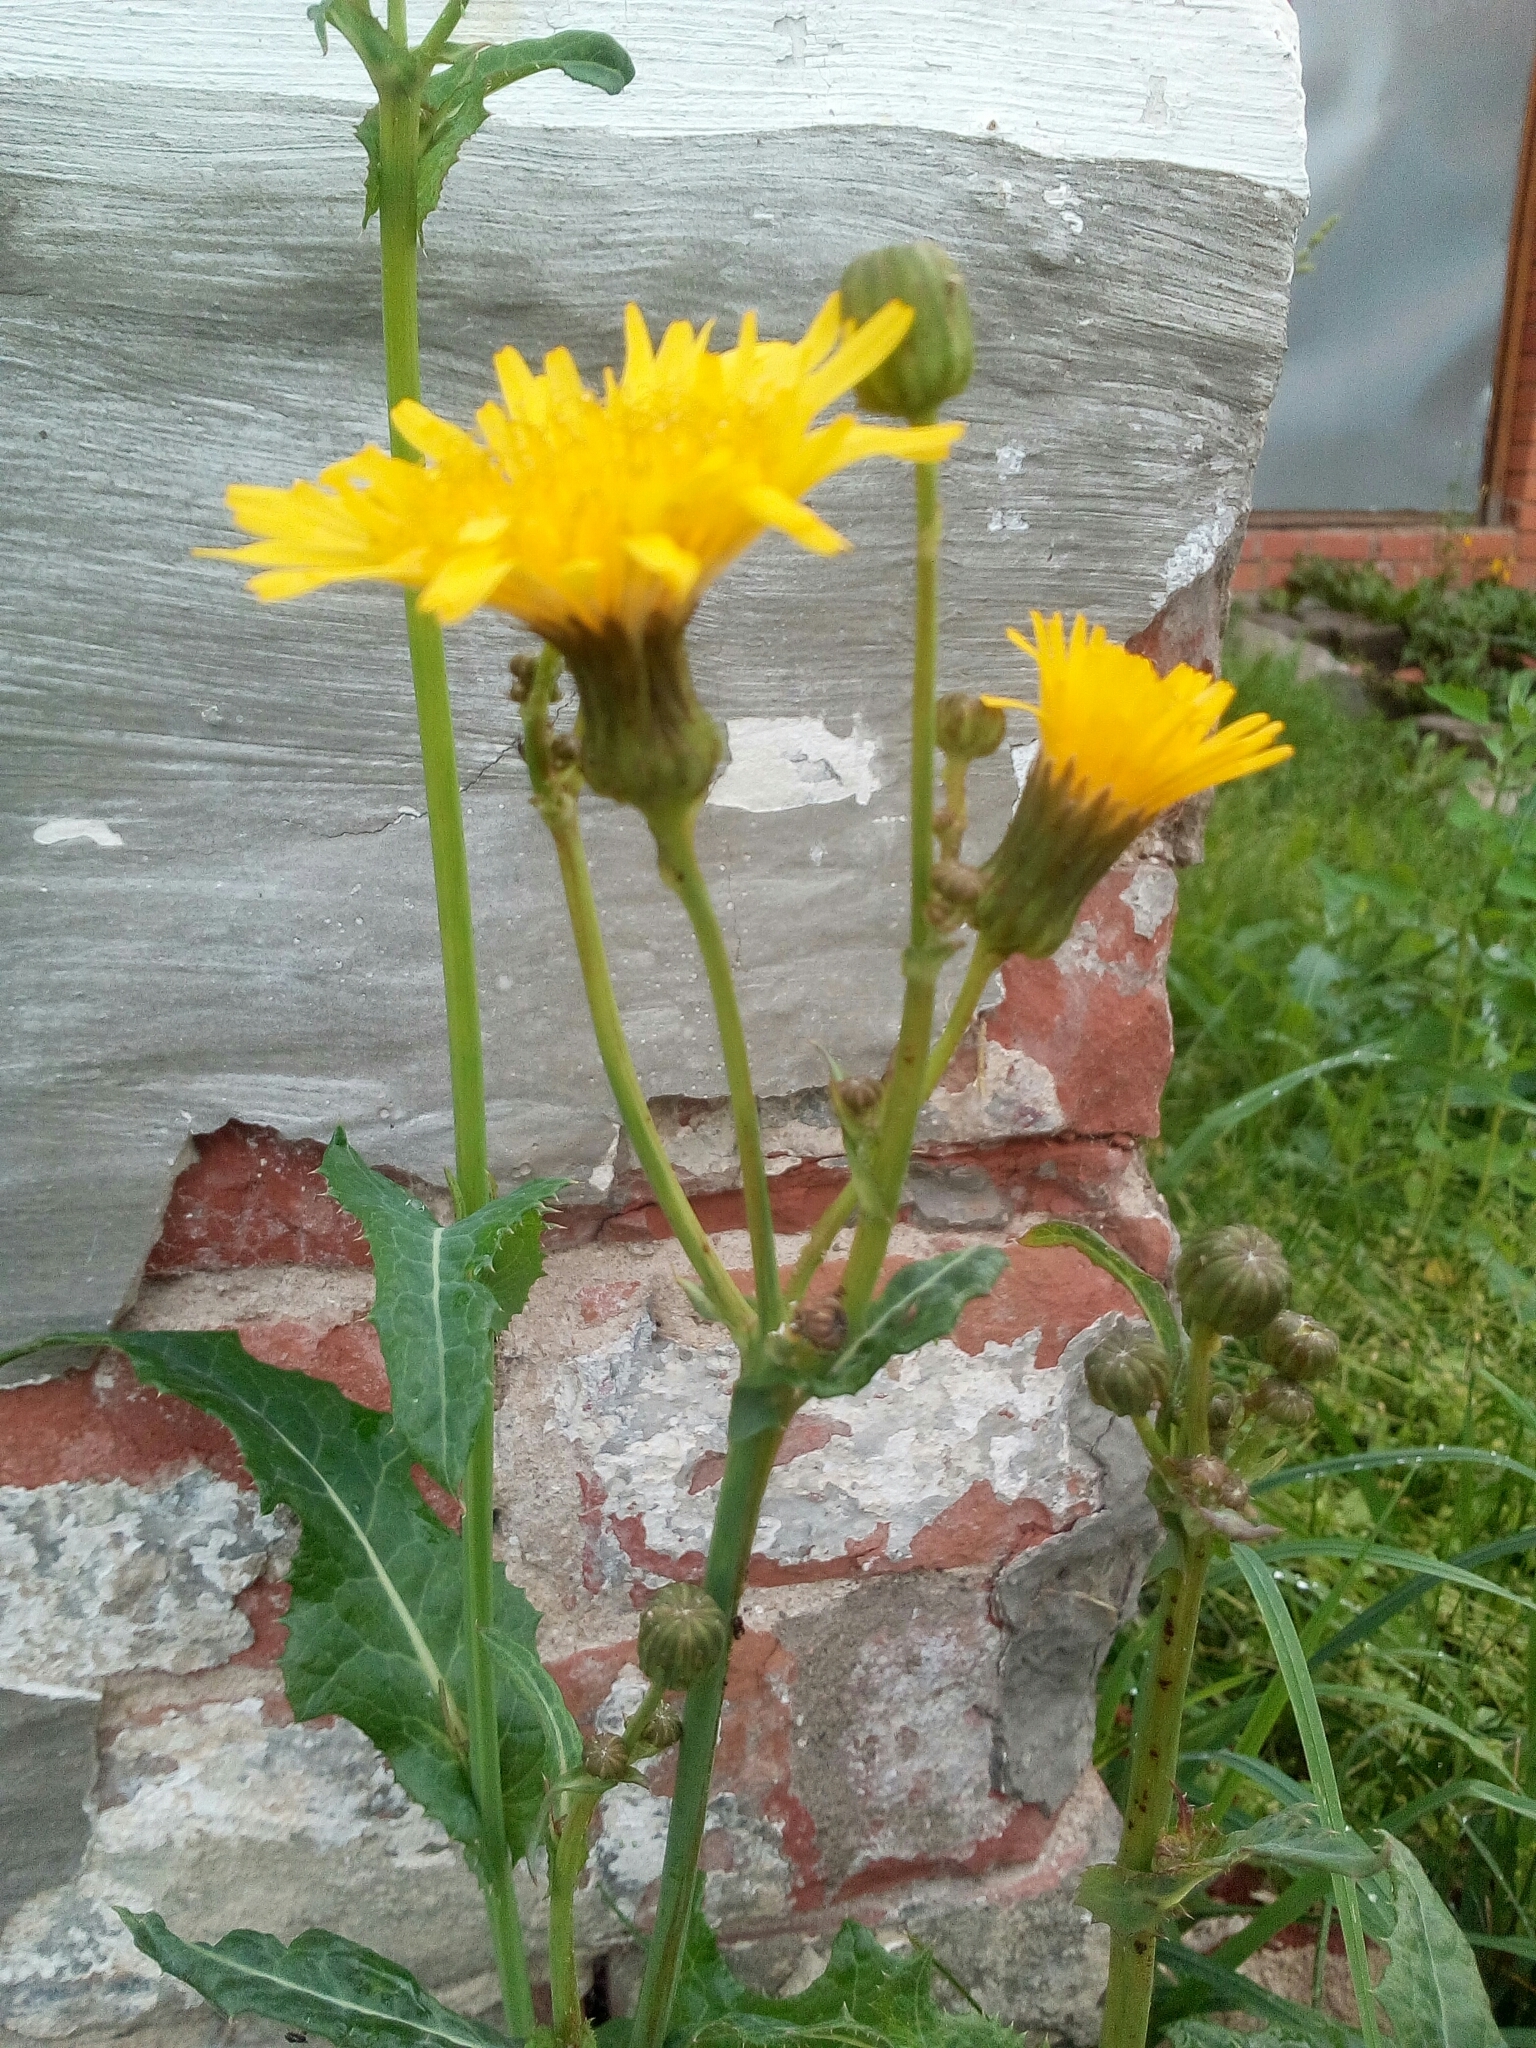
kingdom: Plantae
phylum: Tracheophyta
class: Magnoliopsida
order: Asterales
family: Asteraceae
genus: Sonchus
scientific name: Sonchus arvensis
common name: Perennial sow-thistle
